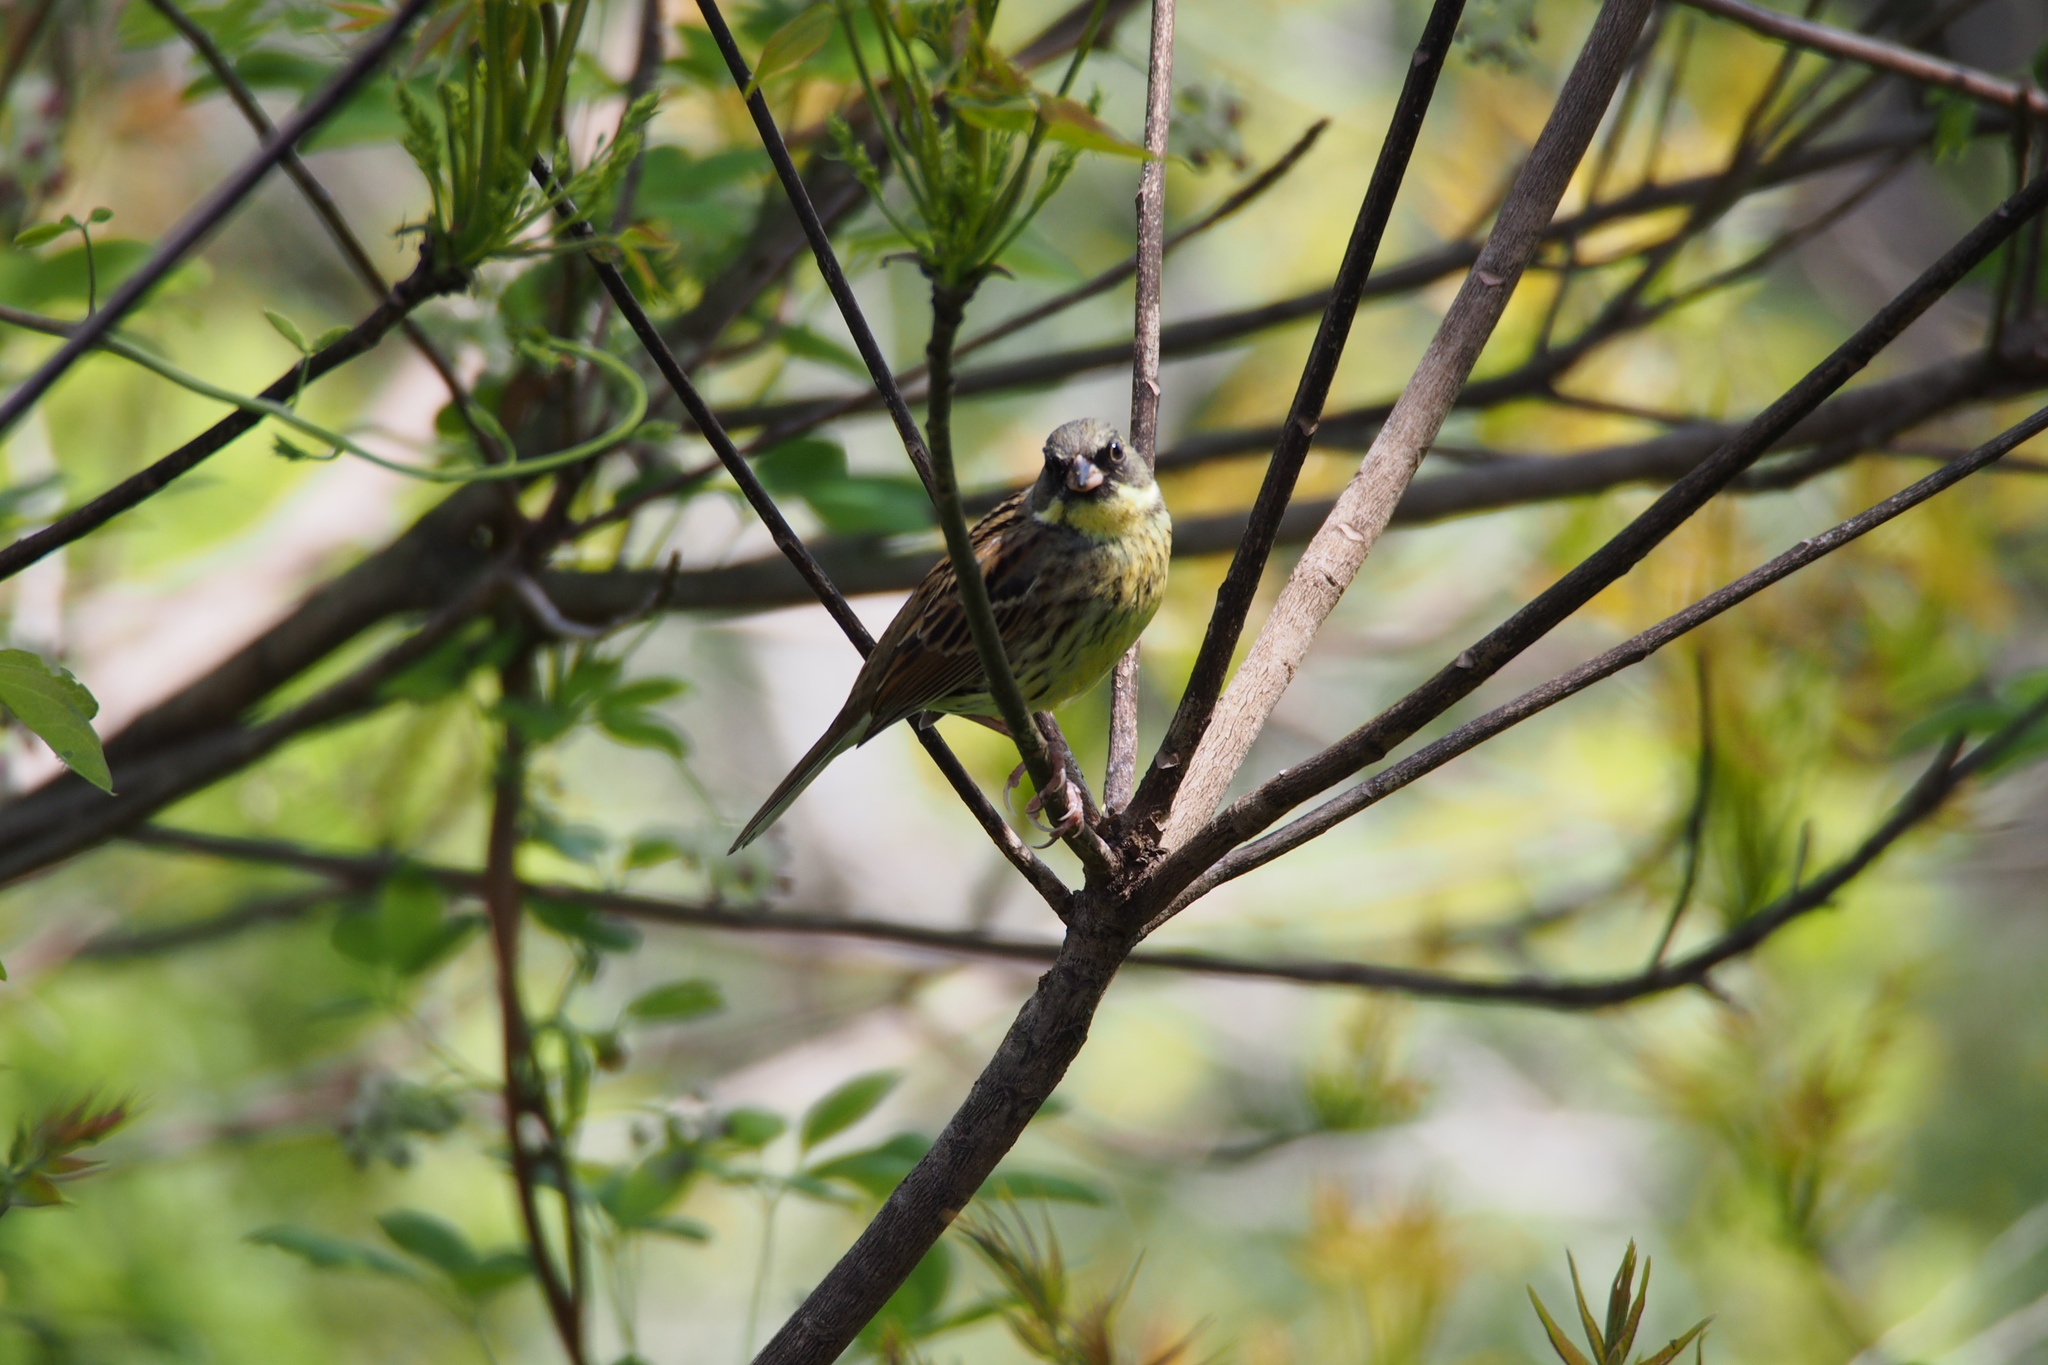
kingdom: Animalia
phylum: Chordata
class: Aves
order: Passeriformes
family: Emberizidae
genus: Emberiza
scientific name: Emberiza personata
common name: Masked bunting
